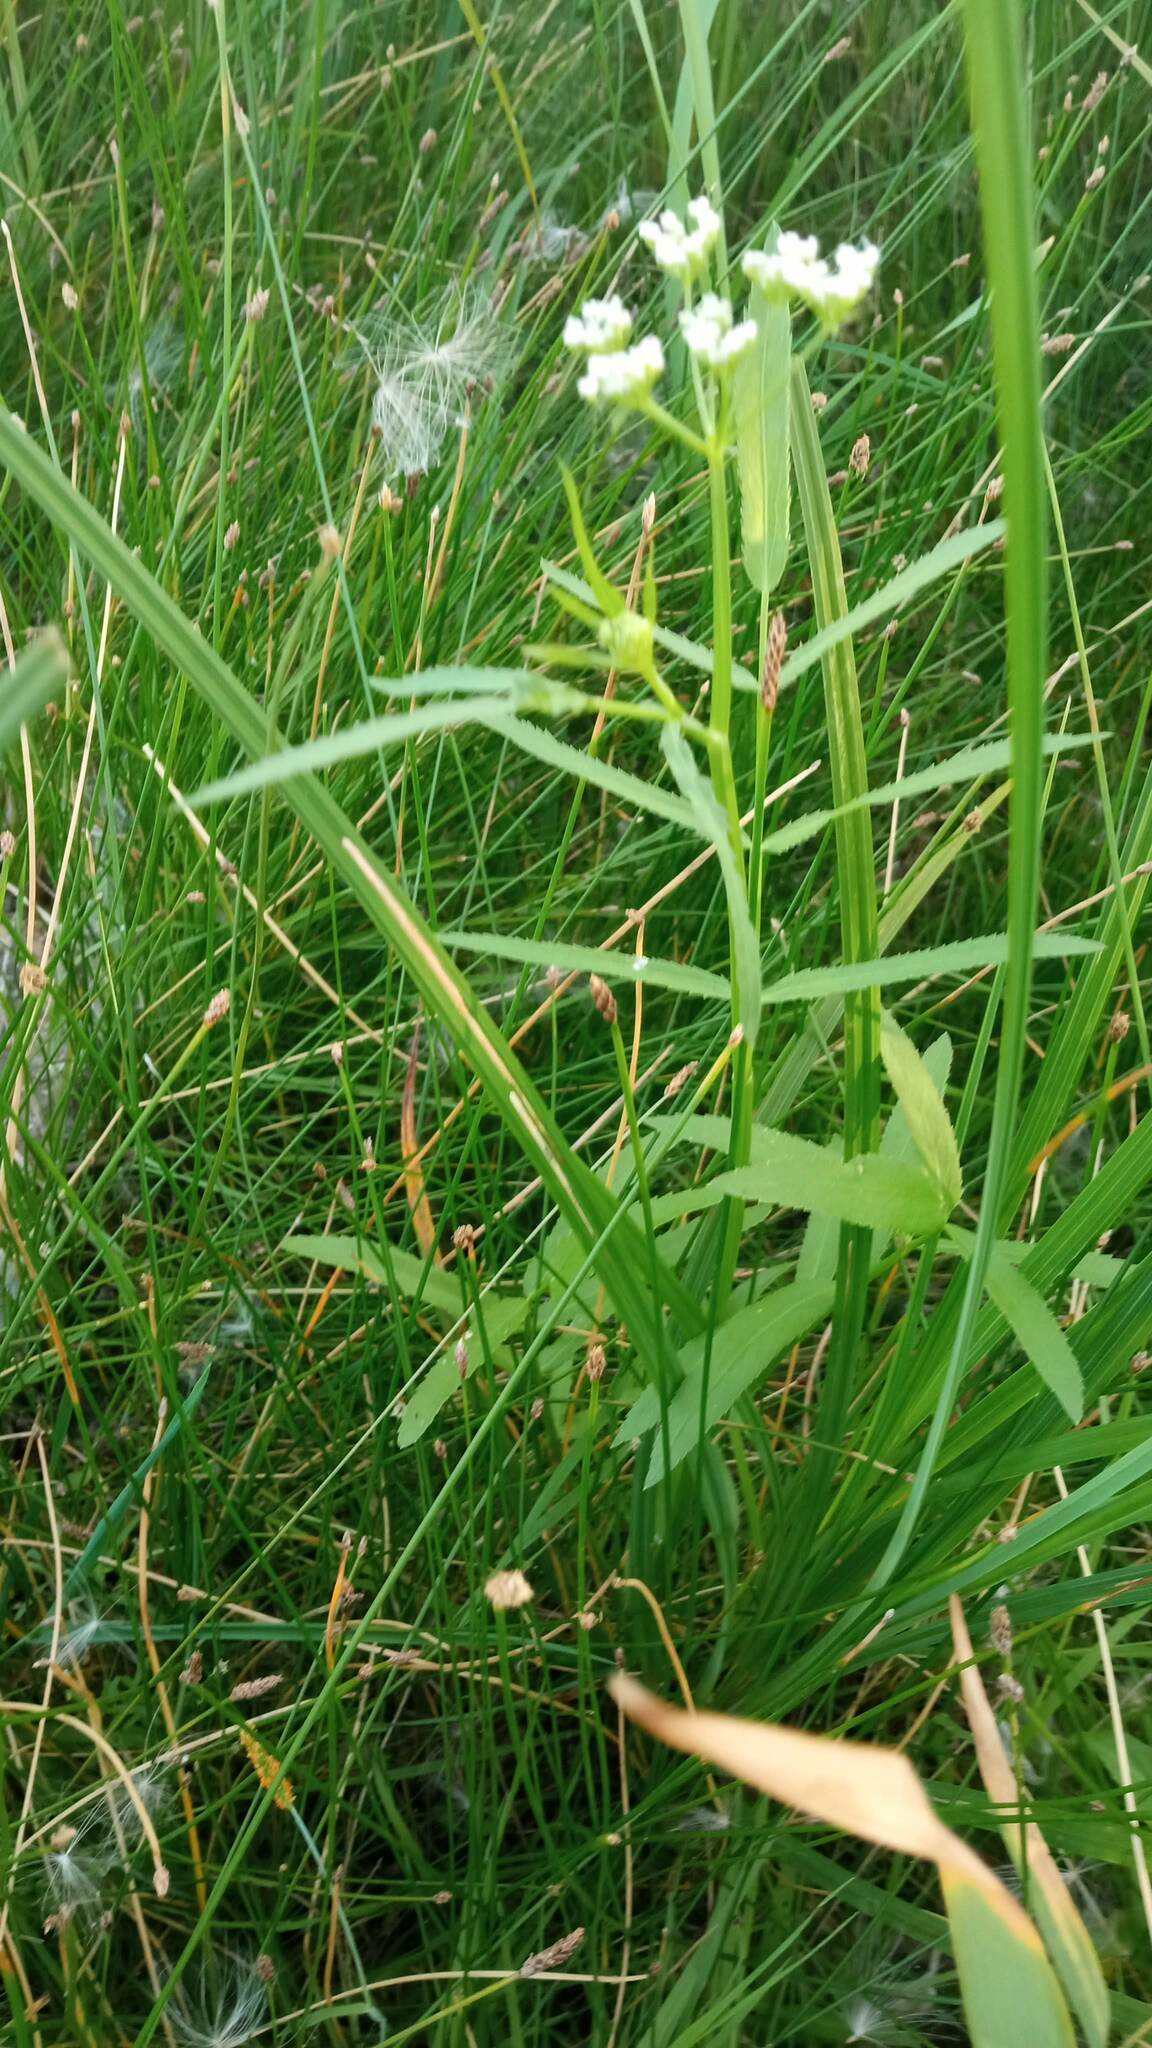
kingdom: Plantae
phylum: Tracheophyta
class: Magnoliopsida
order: Apiales
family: Apiaceae
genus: Sium
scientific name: Sium latifolium
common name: Greater water-parsnip
